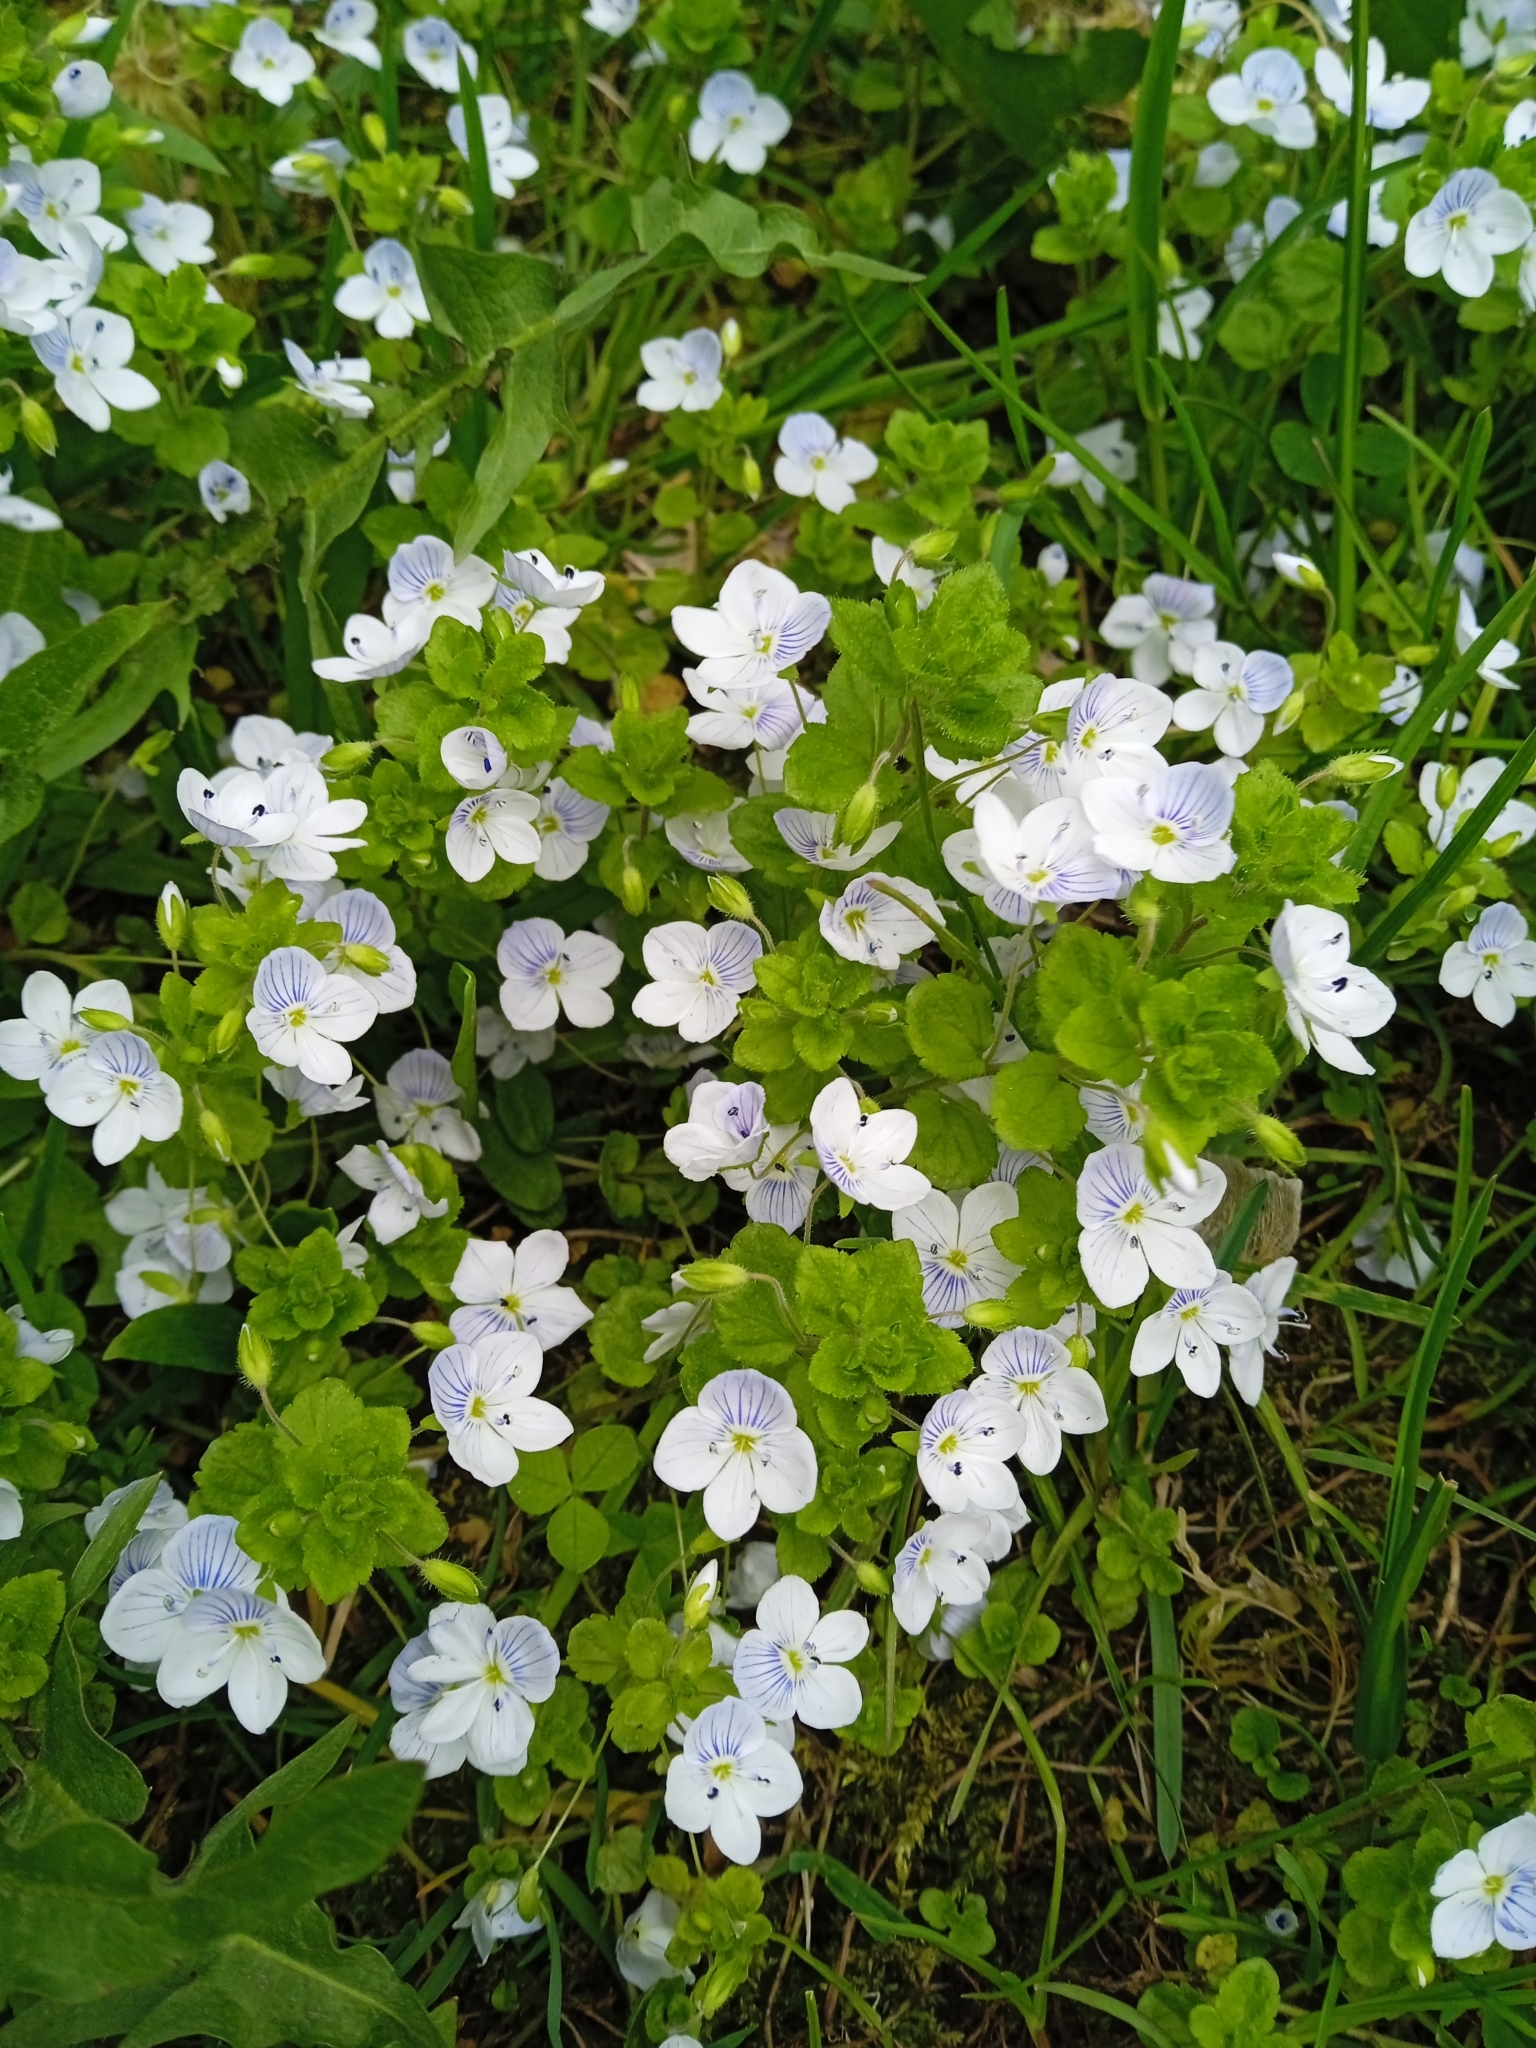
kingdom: Plantae
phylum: Tracheophyta
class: Magnoliopsida
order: Lamiales
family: Plantaginaceae
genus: Veronica
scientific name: Veronica filiformis
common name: Slender speedwell
